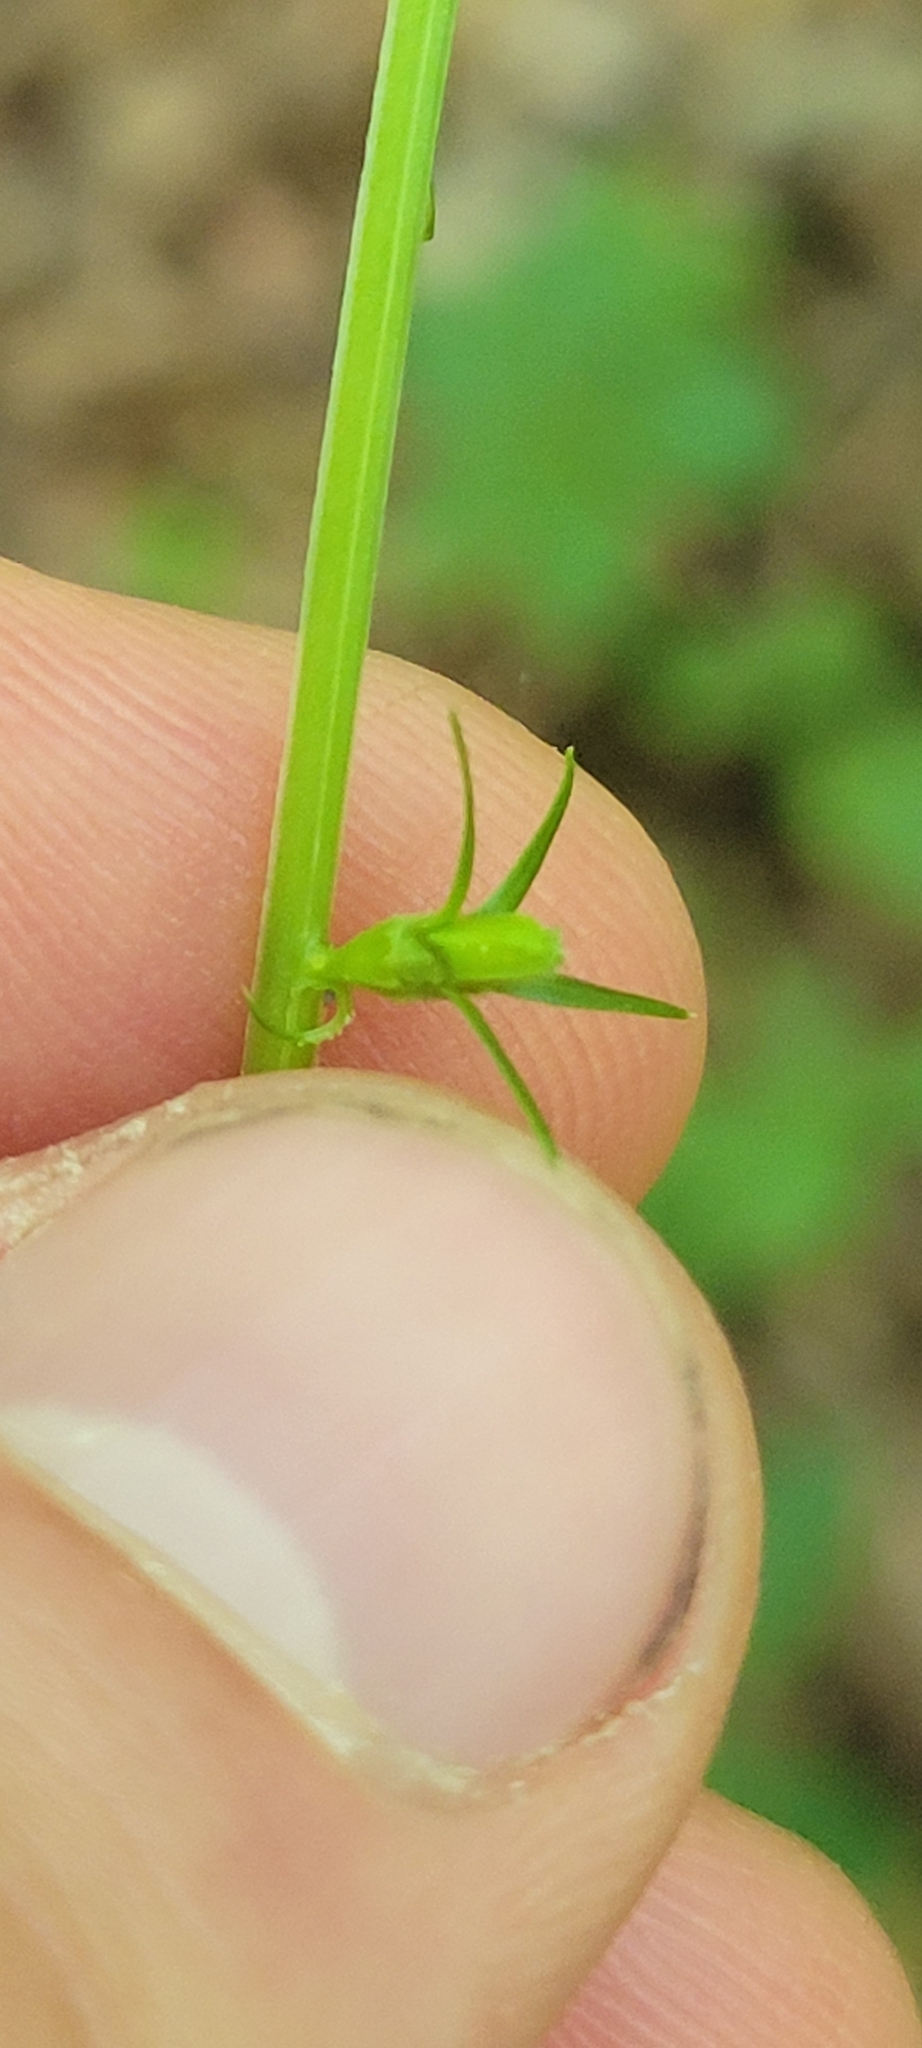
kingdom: Plantae
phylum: Tracheophyta
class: Magnoliopsida
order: Asterales
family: Campanulaceae
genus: Campanulastrum
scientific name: Campanulastrum americanum
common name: American bellflower
